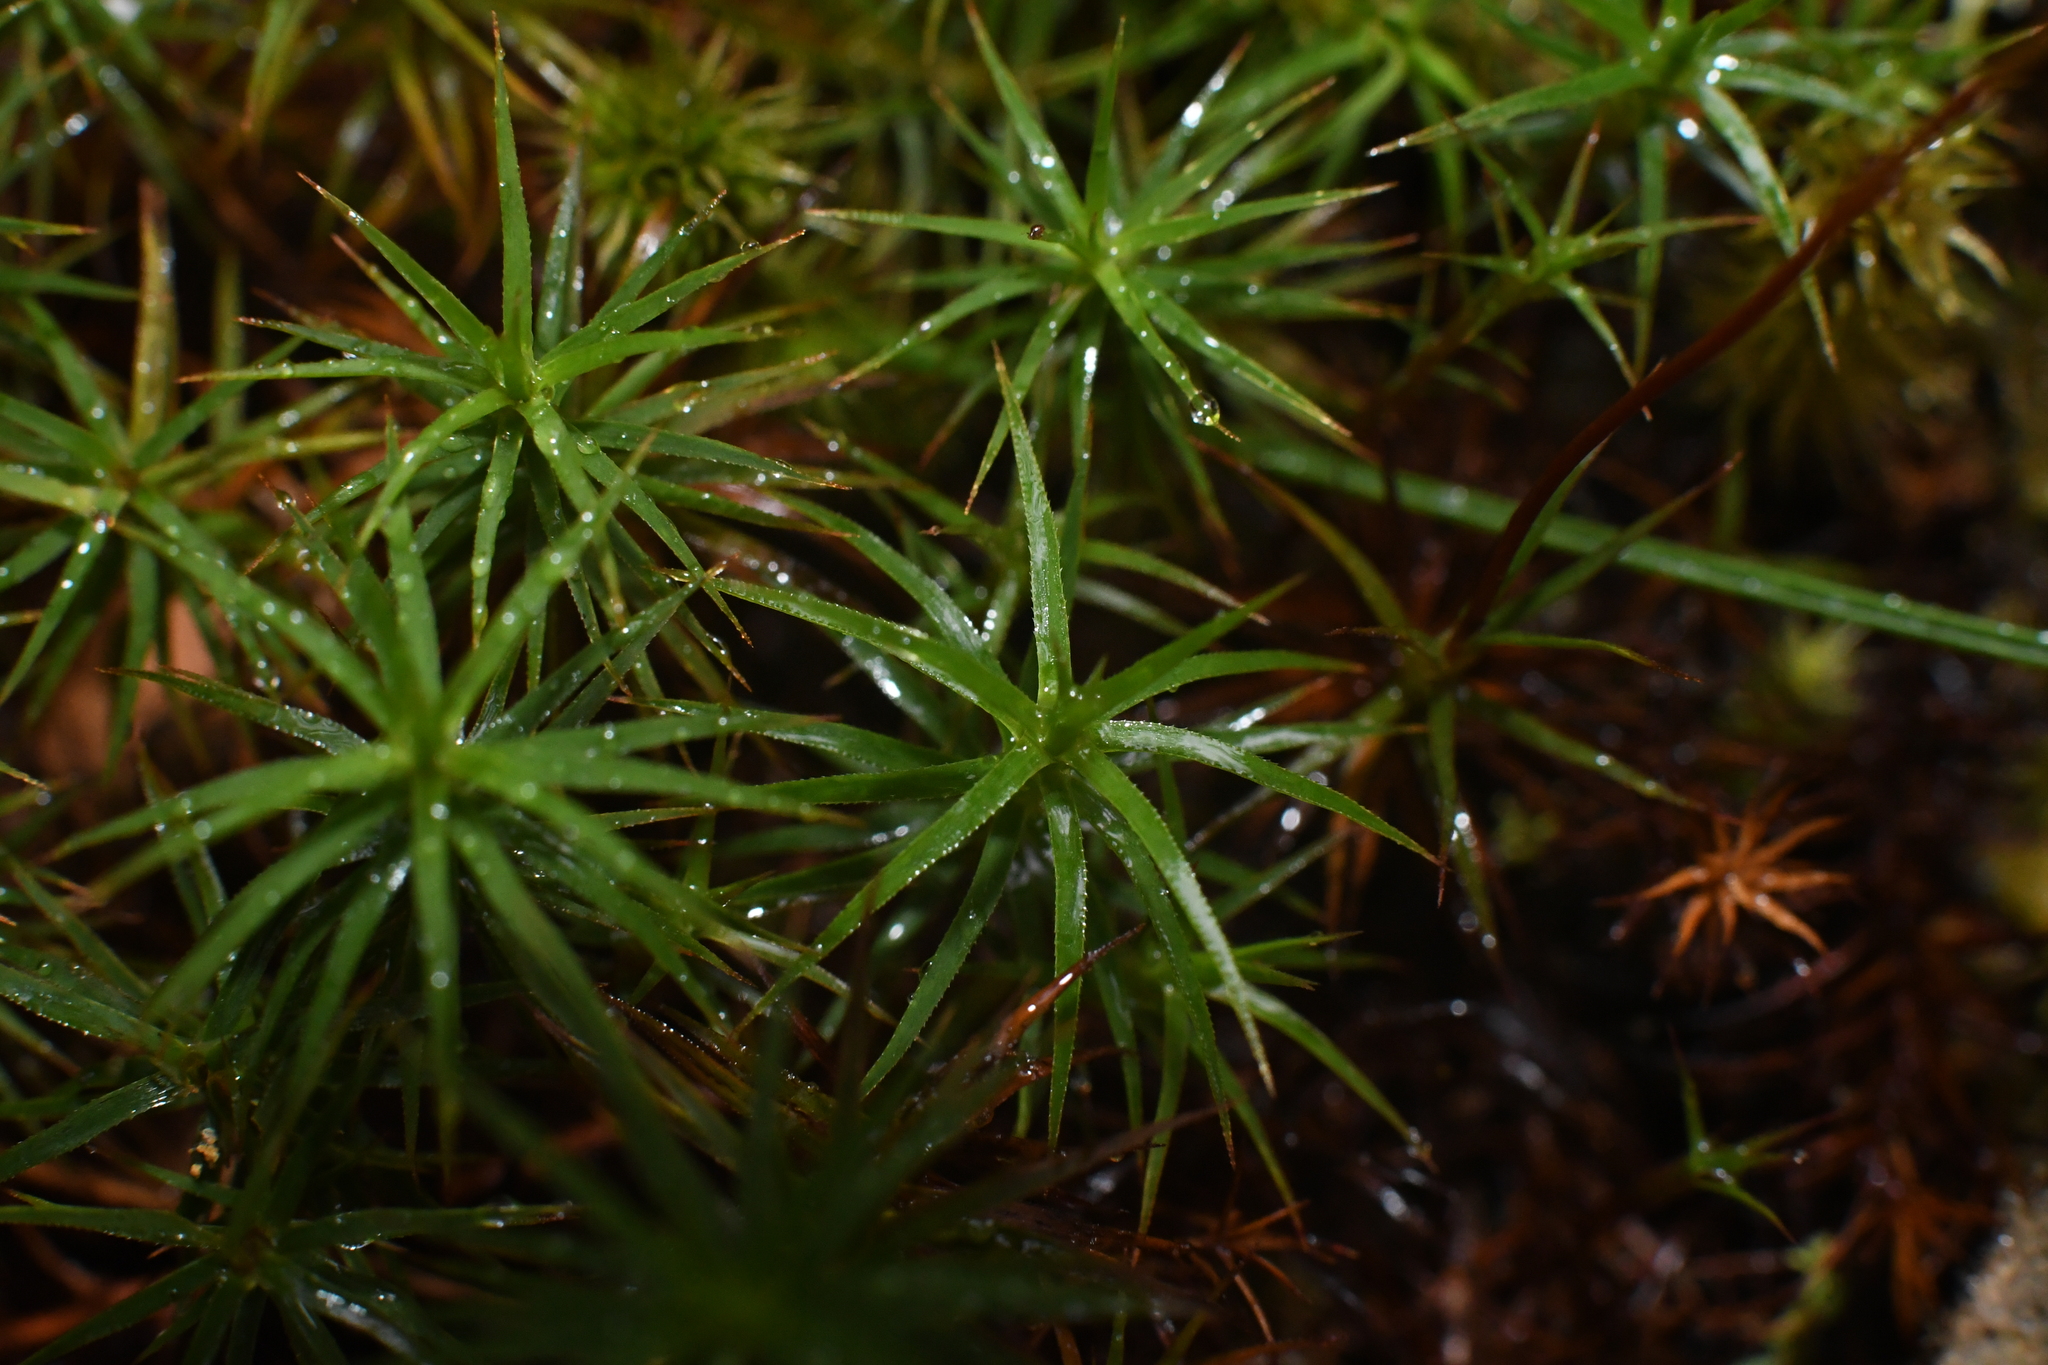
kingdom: Plantae
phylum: Bryophyta
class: Polytrichopsida
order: Polytrichales
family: Polytrichaceae
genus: Polytrichastrum
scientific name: Polytrichastrum alpinum
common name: Alpine haircap
